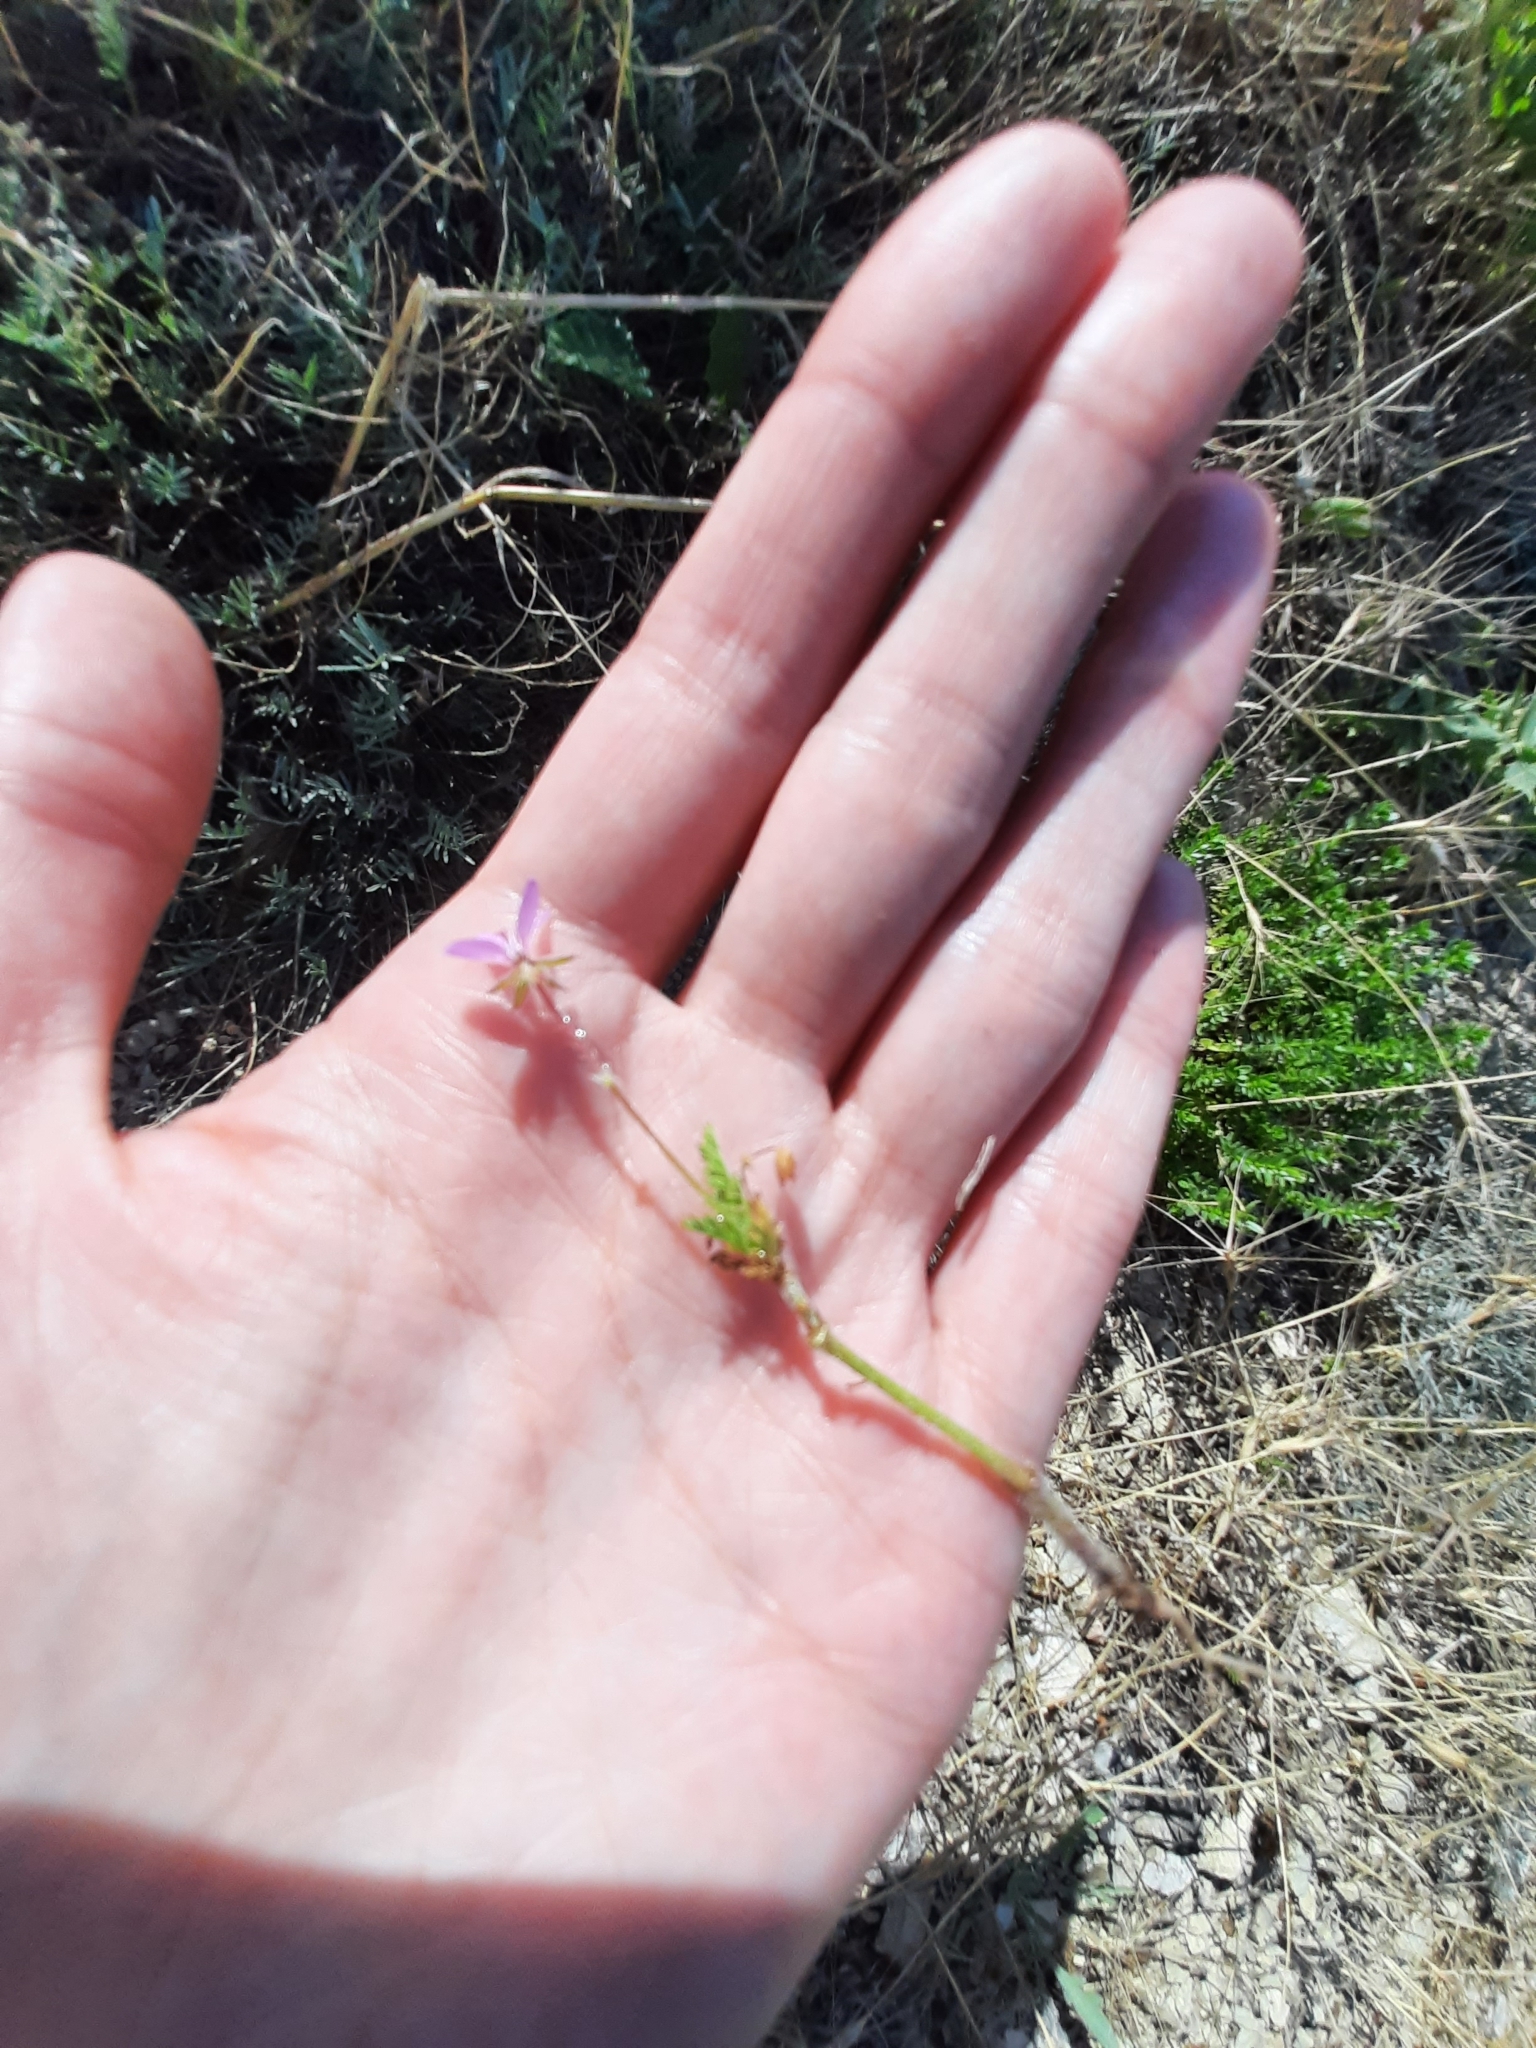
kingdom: Plantae
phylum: Tracheophyta
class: Magnoliopsida
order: Geraniales
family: Geraniaceae
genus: Erodium
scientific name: Erodium cicutarium
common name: Common stork's-bill
